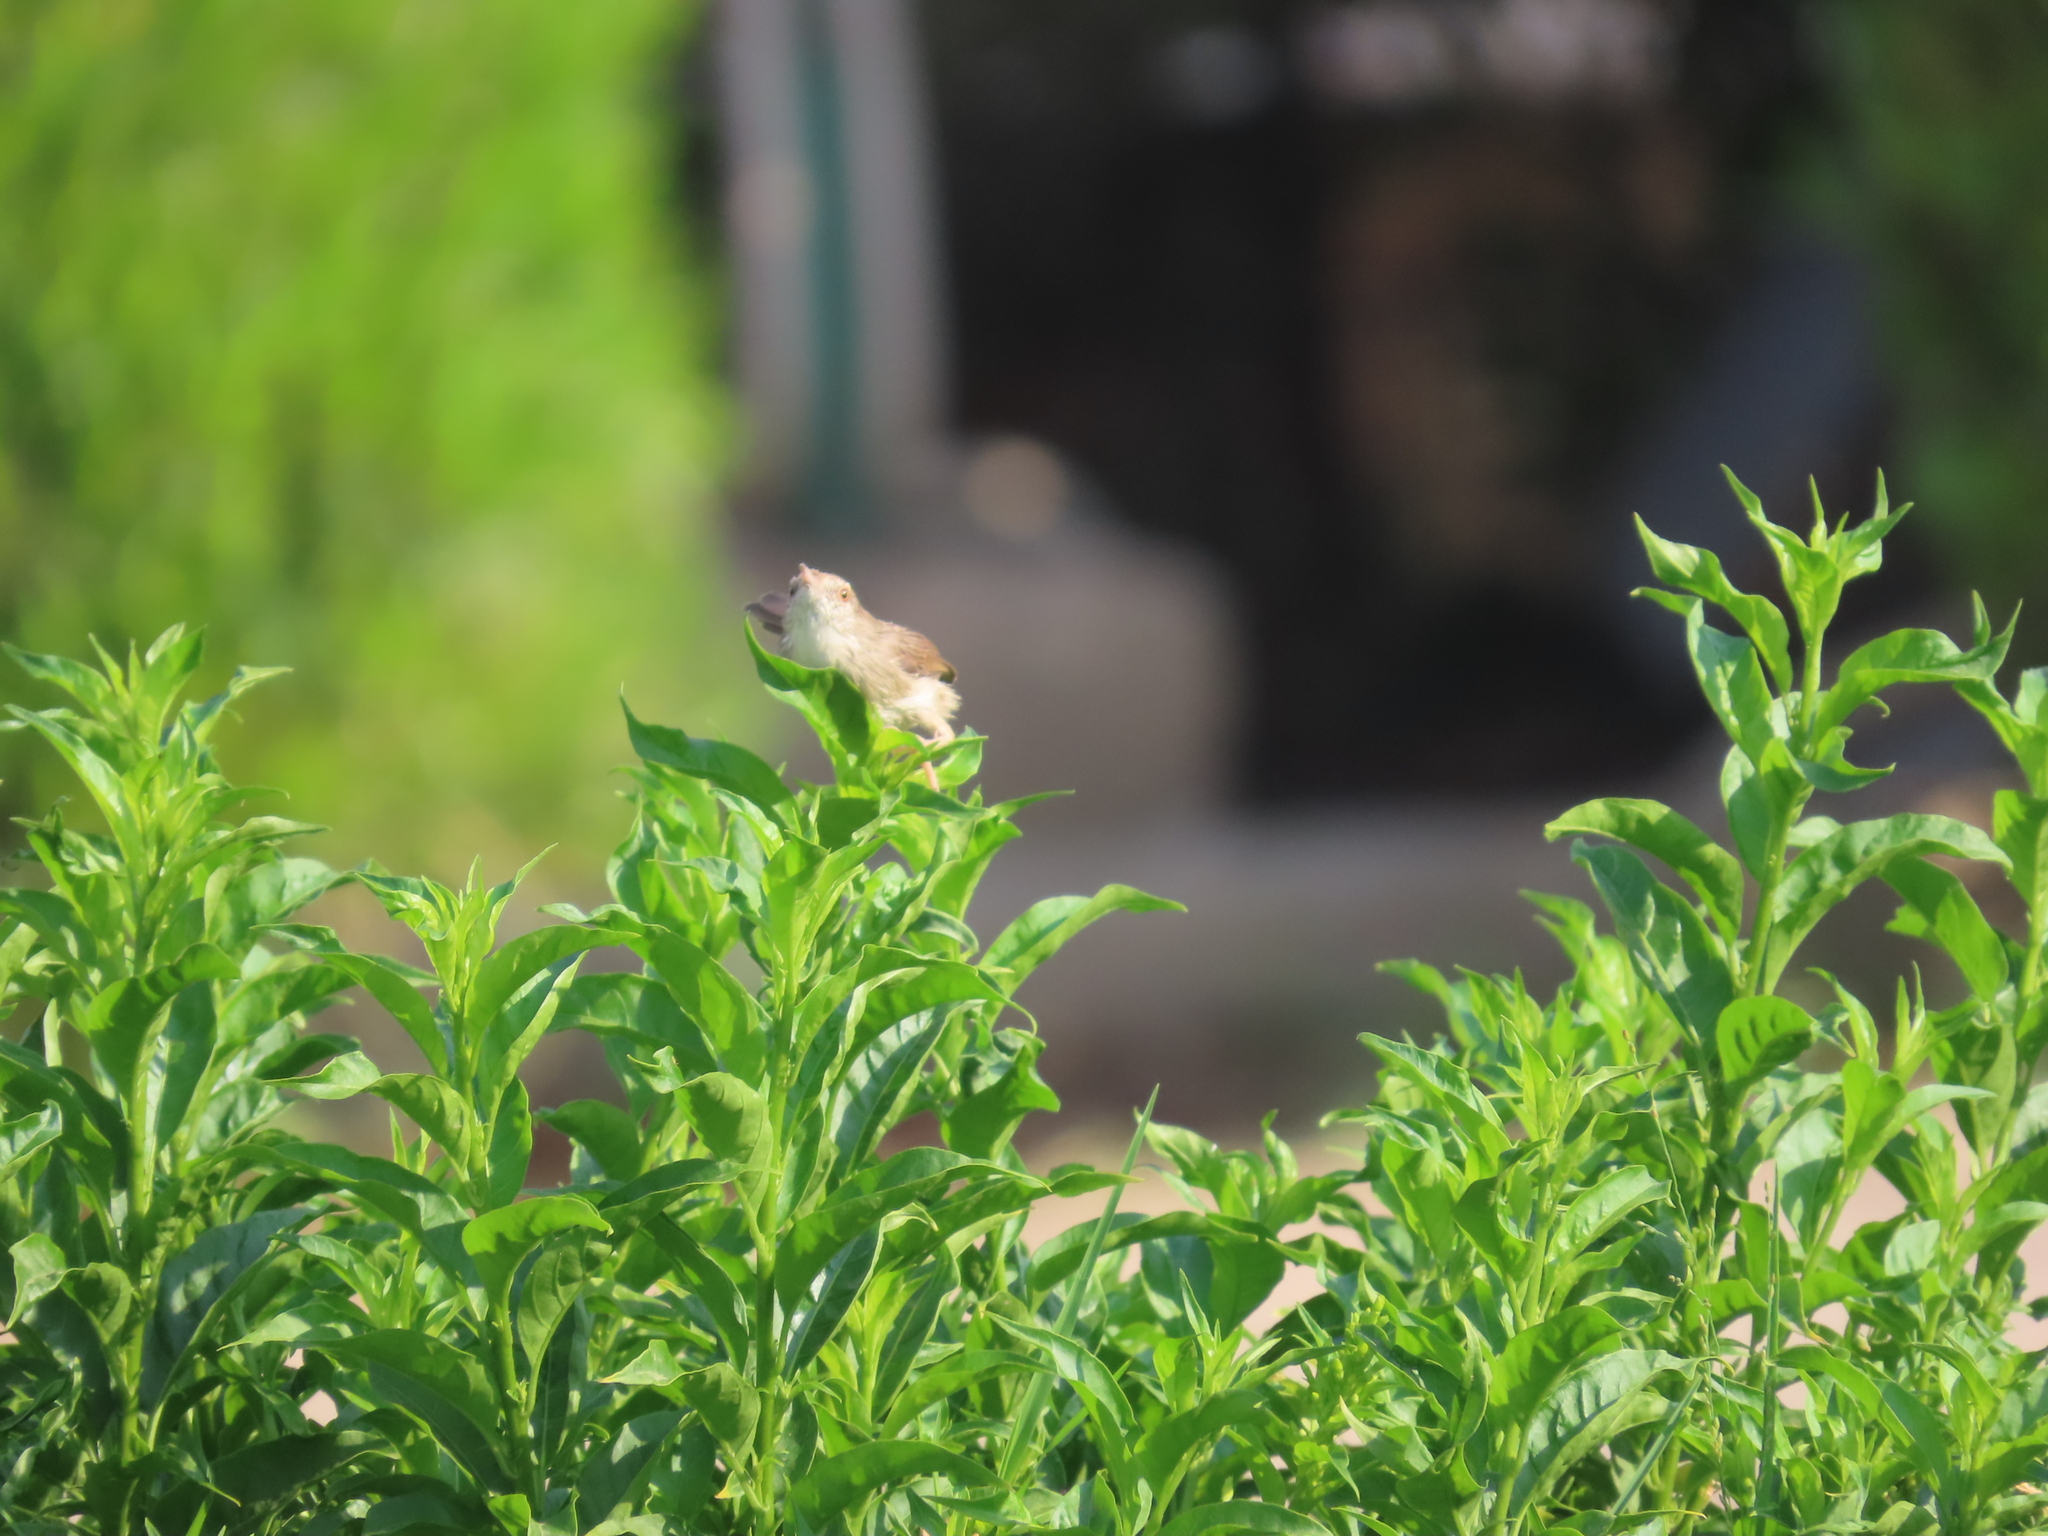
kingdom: Animalia
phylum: Chordata
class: Aves
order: Passeriformes
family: Cisticolidae
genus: Prinia
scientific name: Prinia gracilis
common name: Graceful prinia
